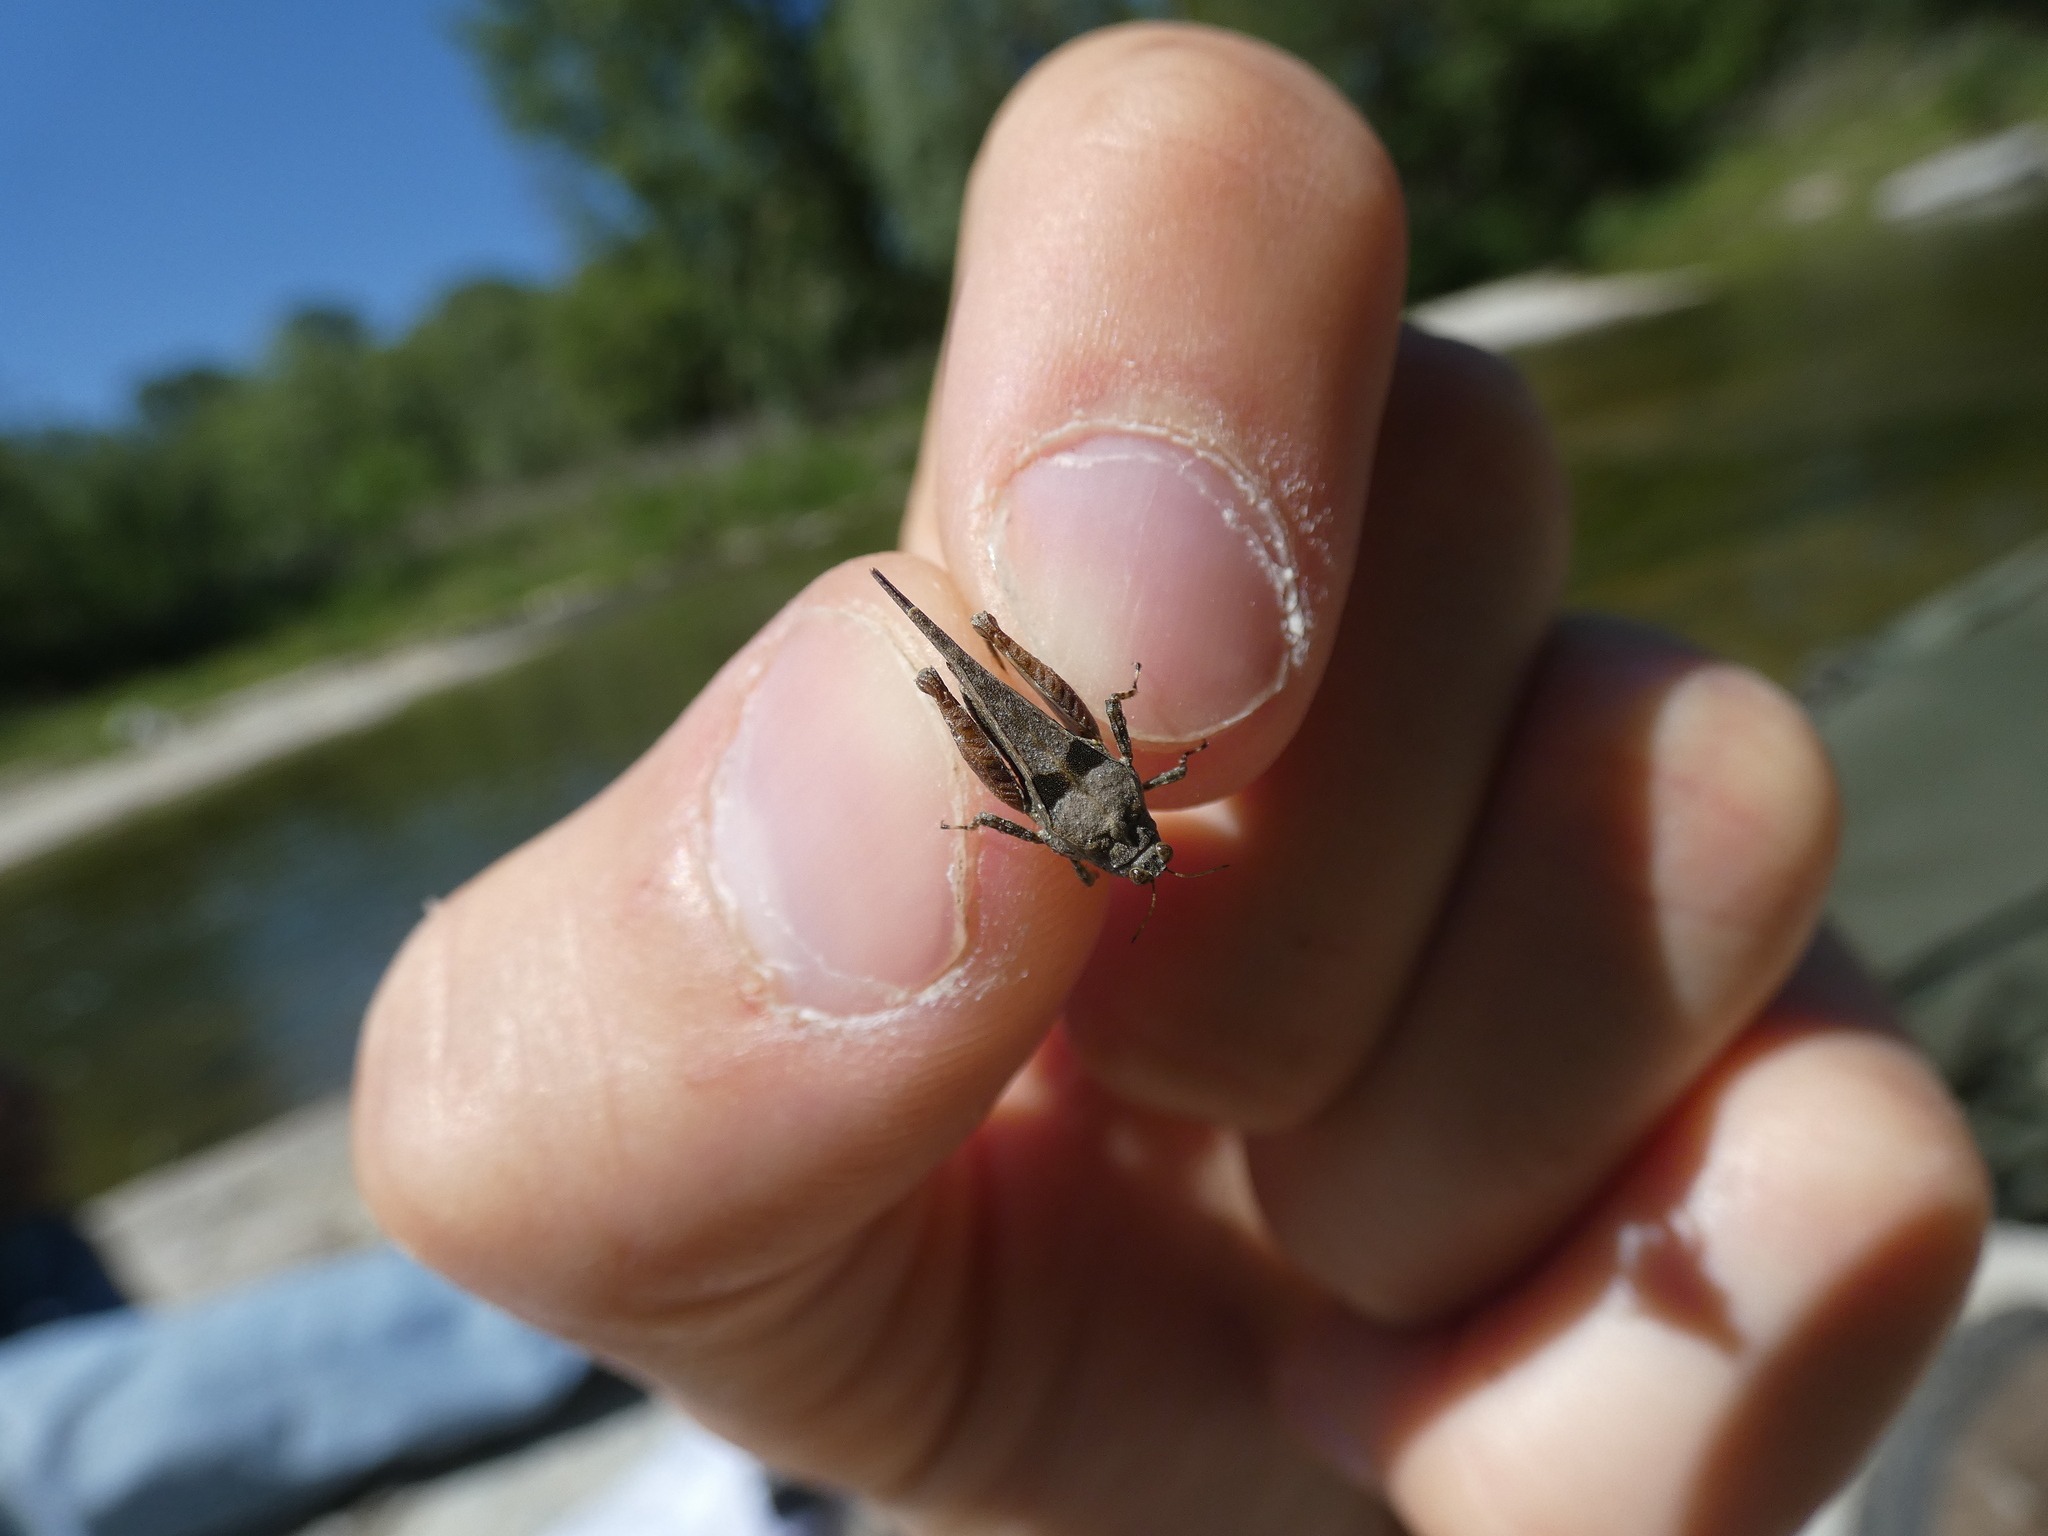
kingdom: Animalia
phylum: Arthropoda
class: Insecta
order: Orthoptera
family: Tetrigidae
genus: Paratettix
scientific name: Paratettix meridionalis
